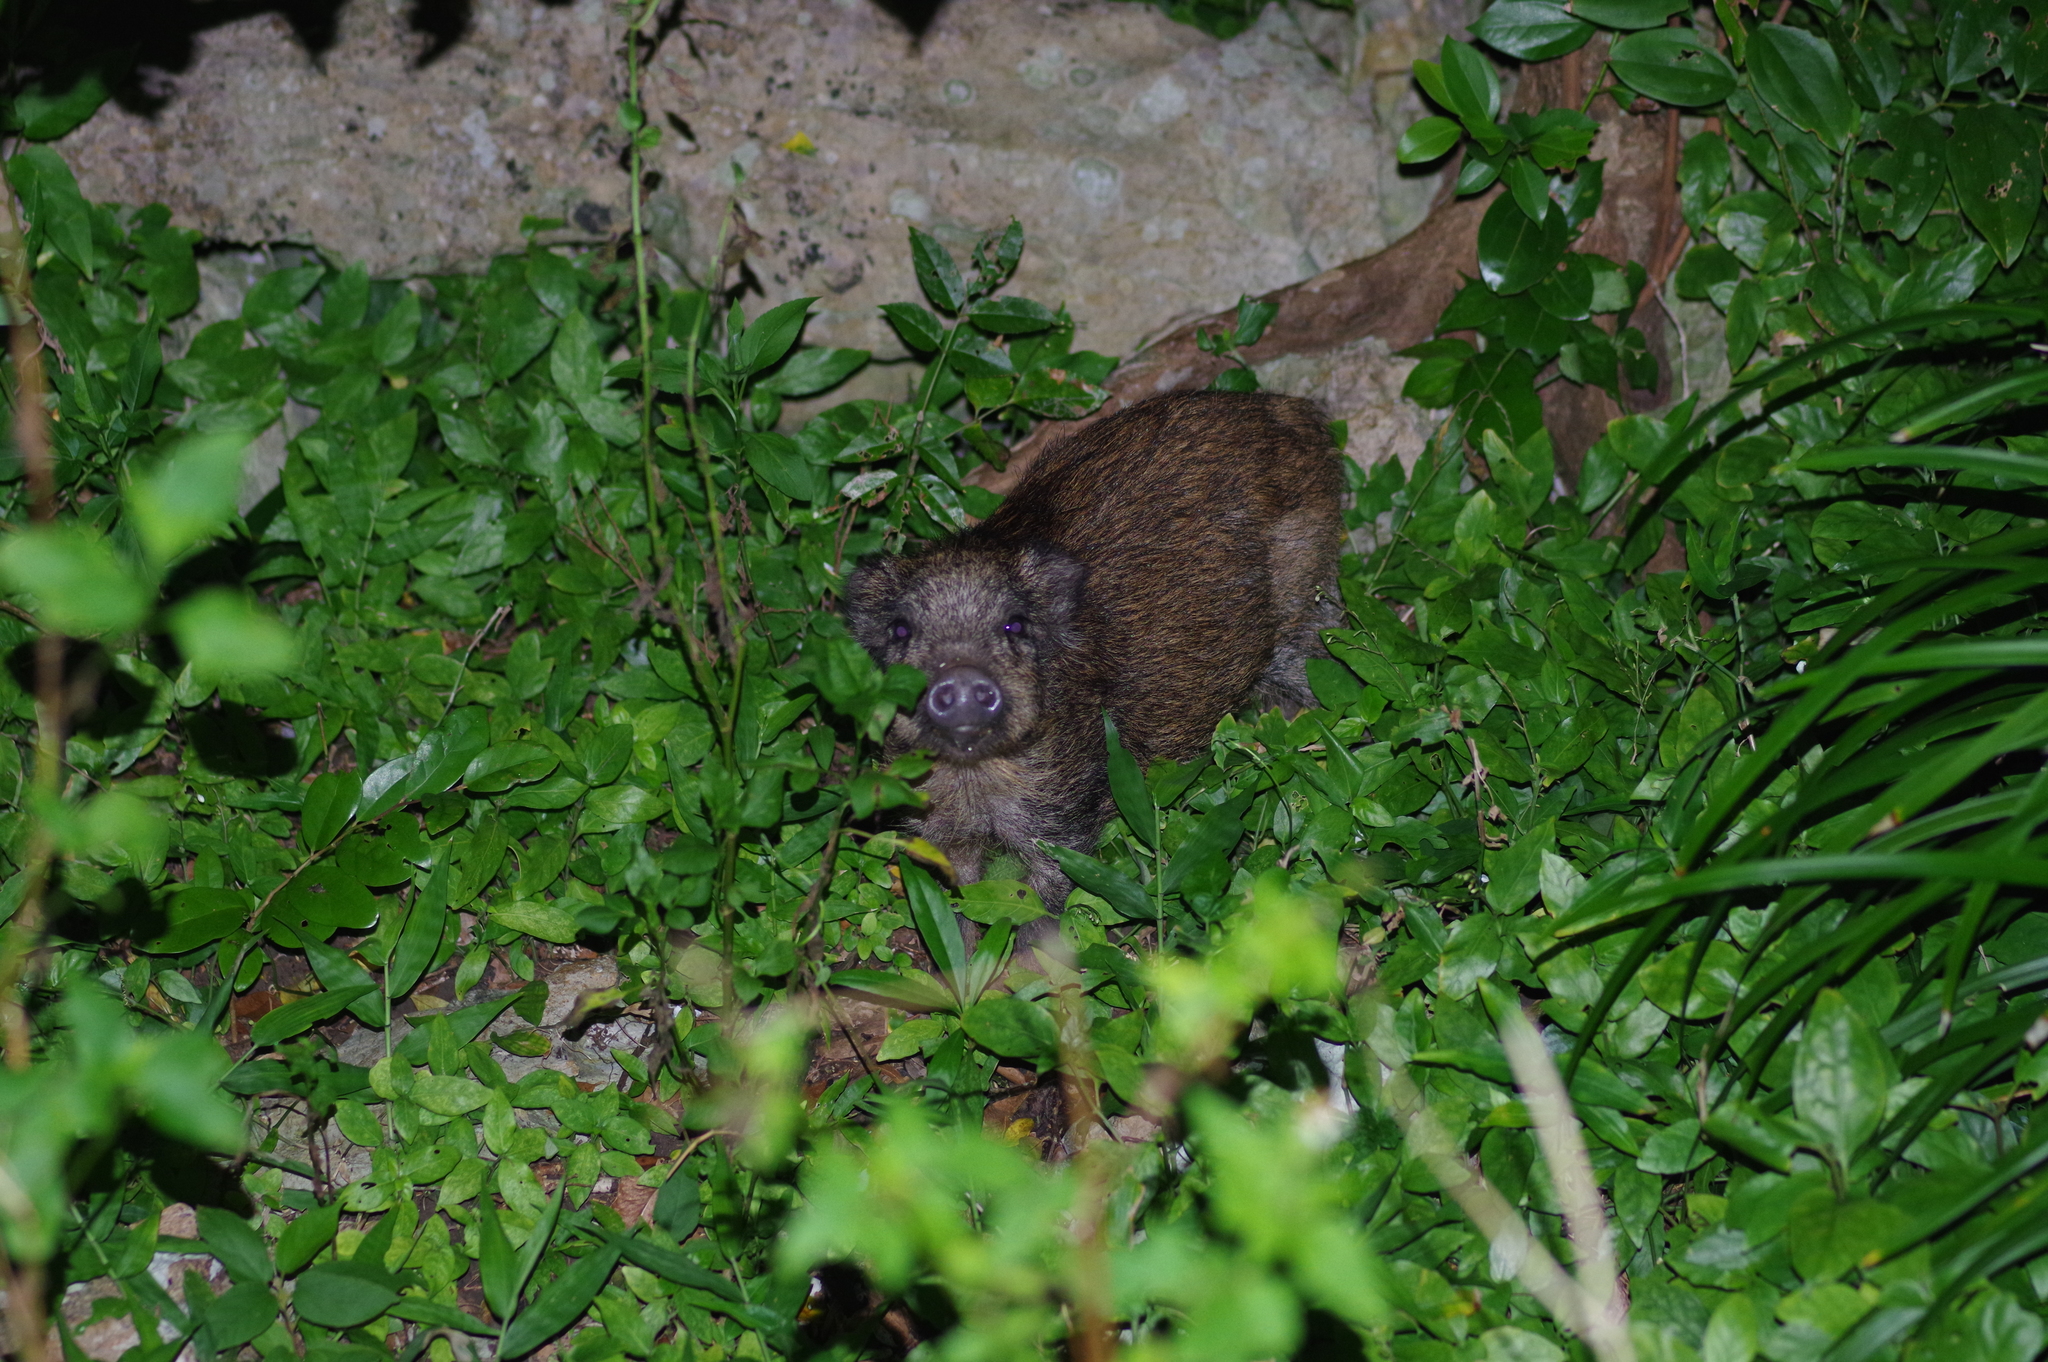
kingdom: Animalia
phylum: Chordata
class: Mammalia
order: Artiodactyla
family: Suidae
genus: Sus
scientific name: Sus scrofa
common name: Wild boar
